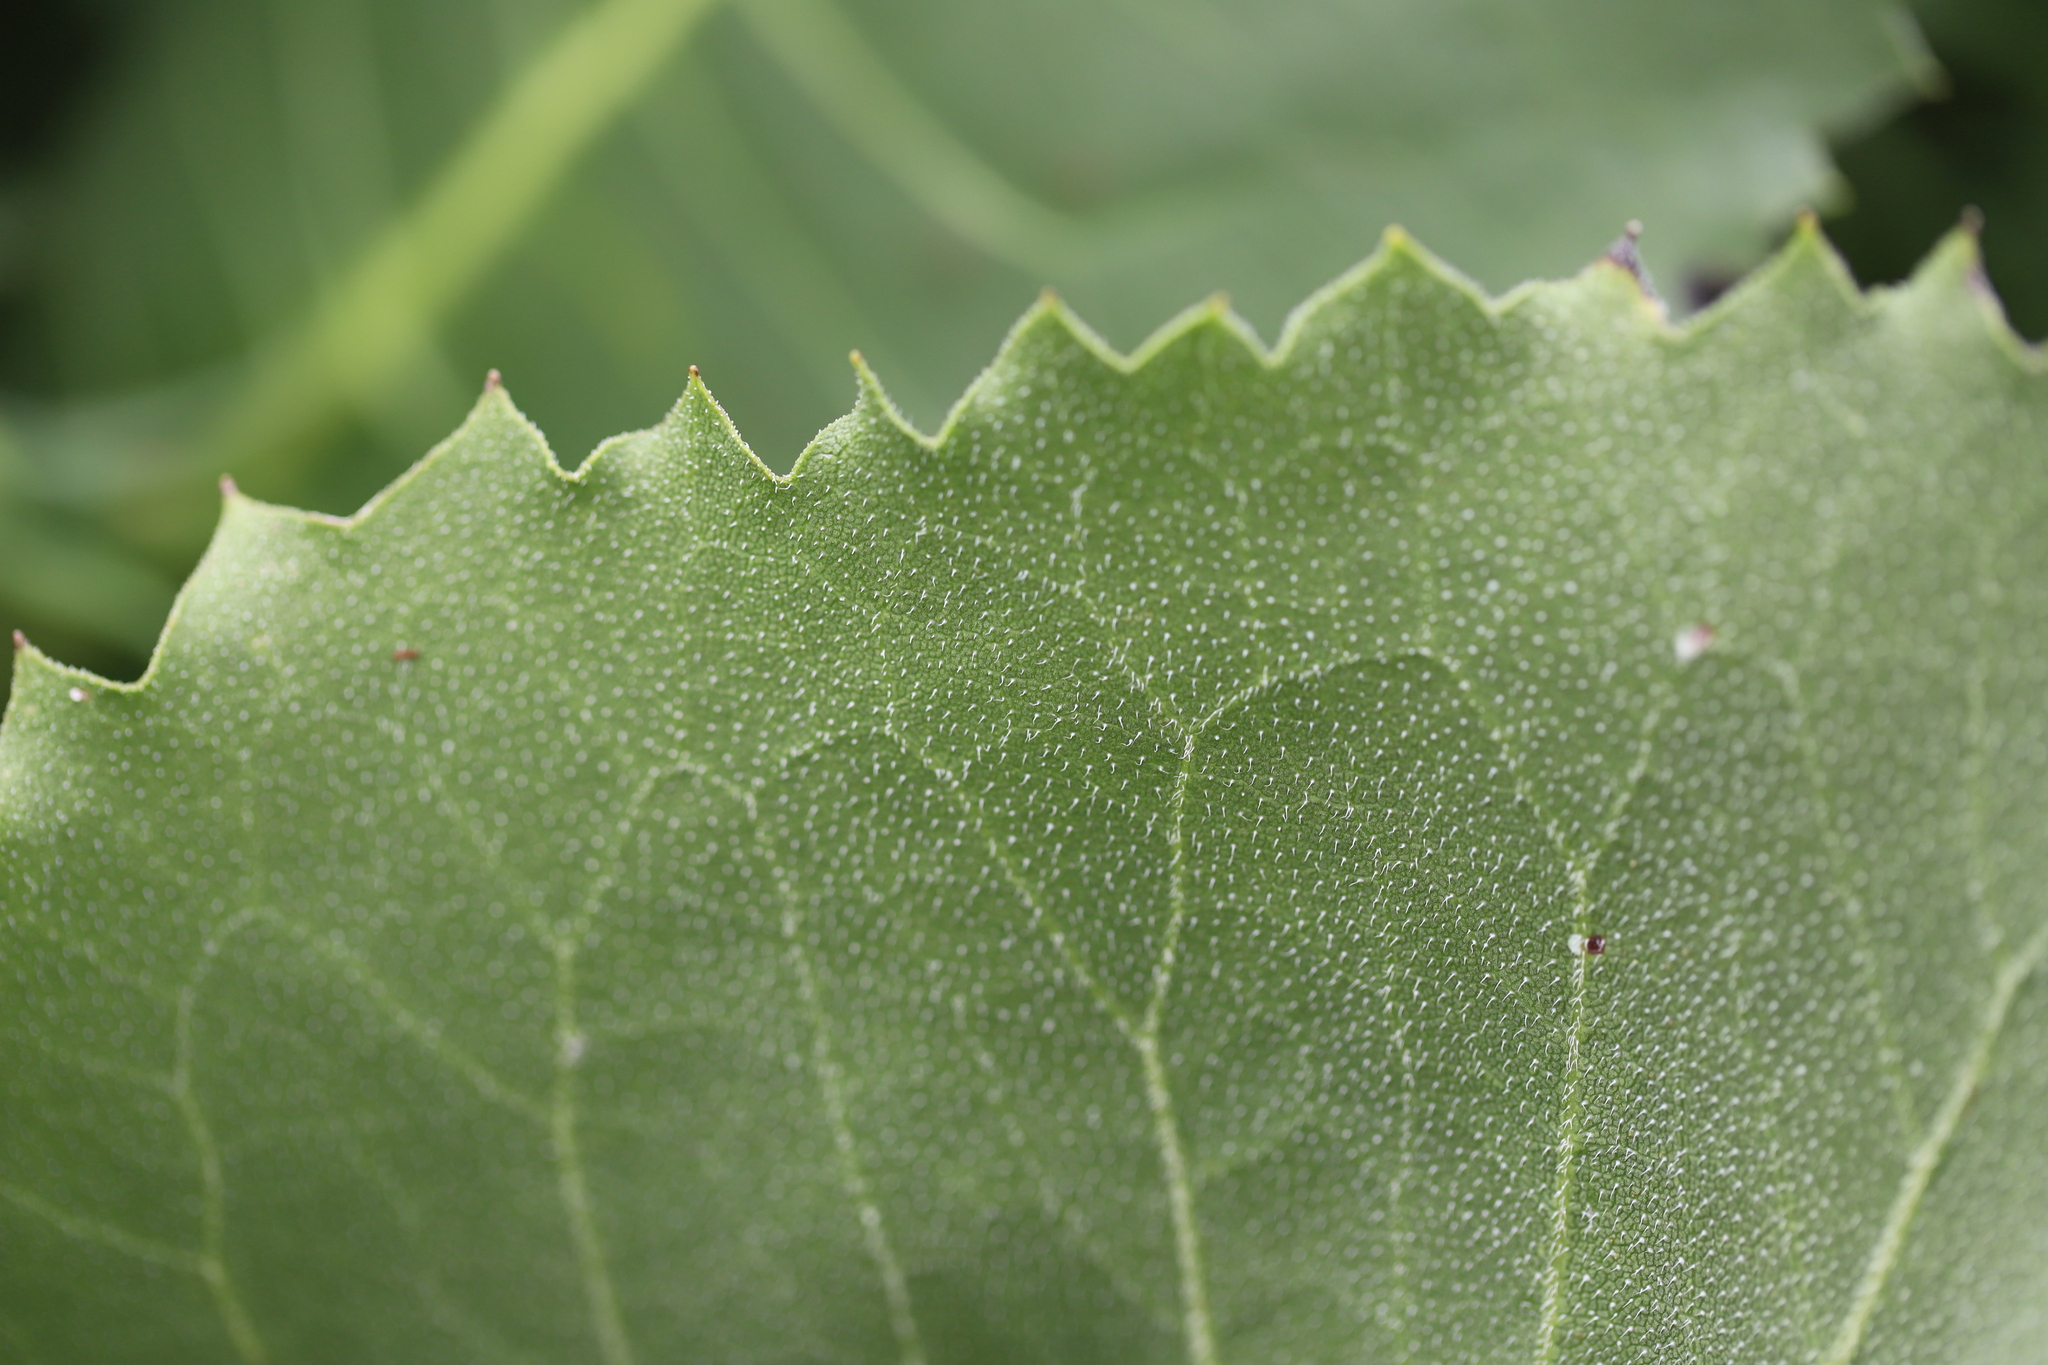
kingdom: Plantae
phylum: Tracheophyta
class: Magnoliopsida
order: Asterales
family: Asteraceae
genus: Silphium
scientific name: Silphium terebinthinaceum
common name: Basal-leaf rosinweed
